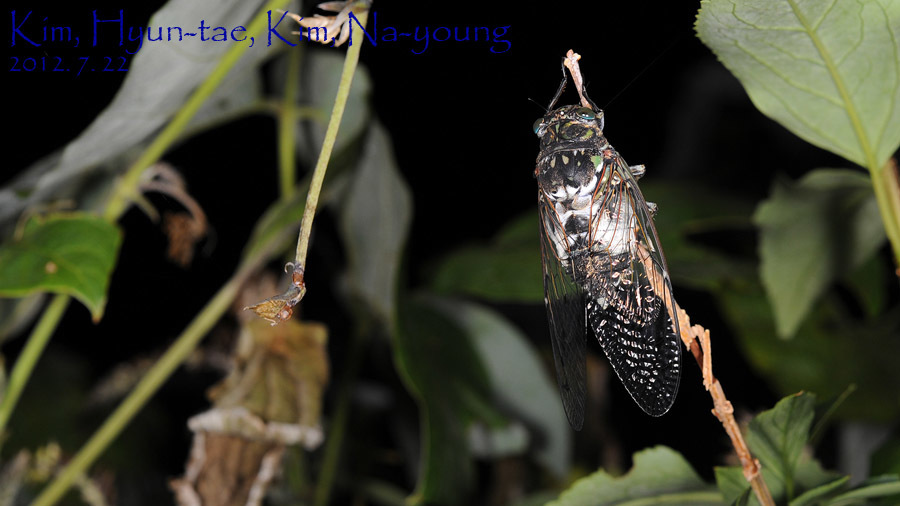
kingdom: Animalia
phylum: Arthropoda
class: Insecta
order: Hemiptera
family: Cicadidae
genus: Hyalessa
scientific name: Hyalessa maculaticollis
